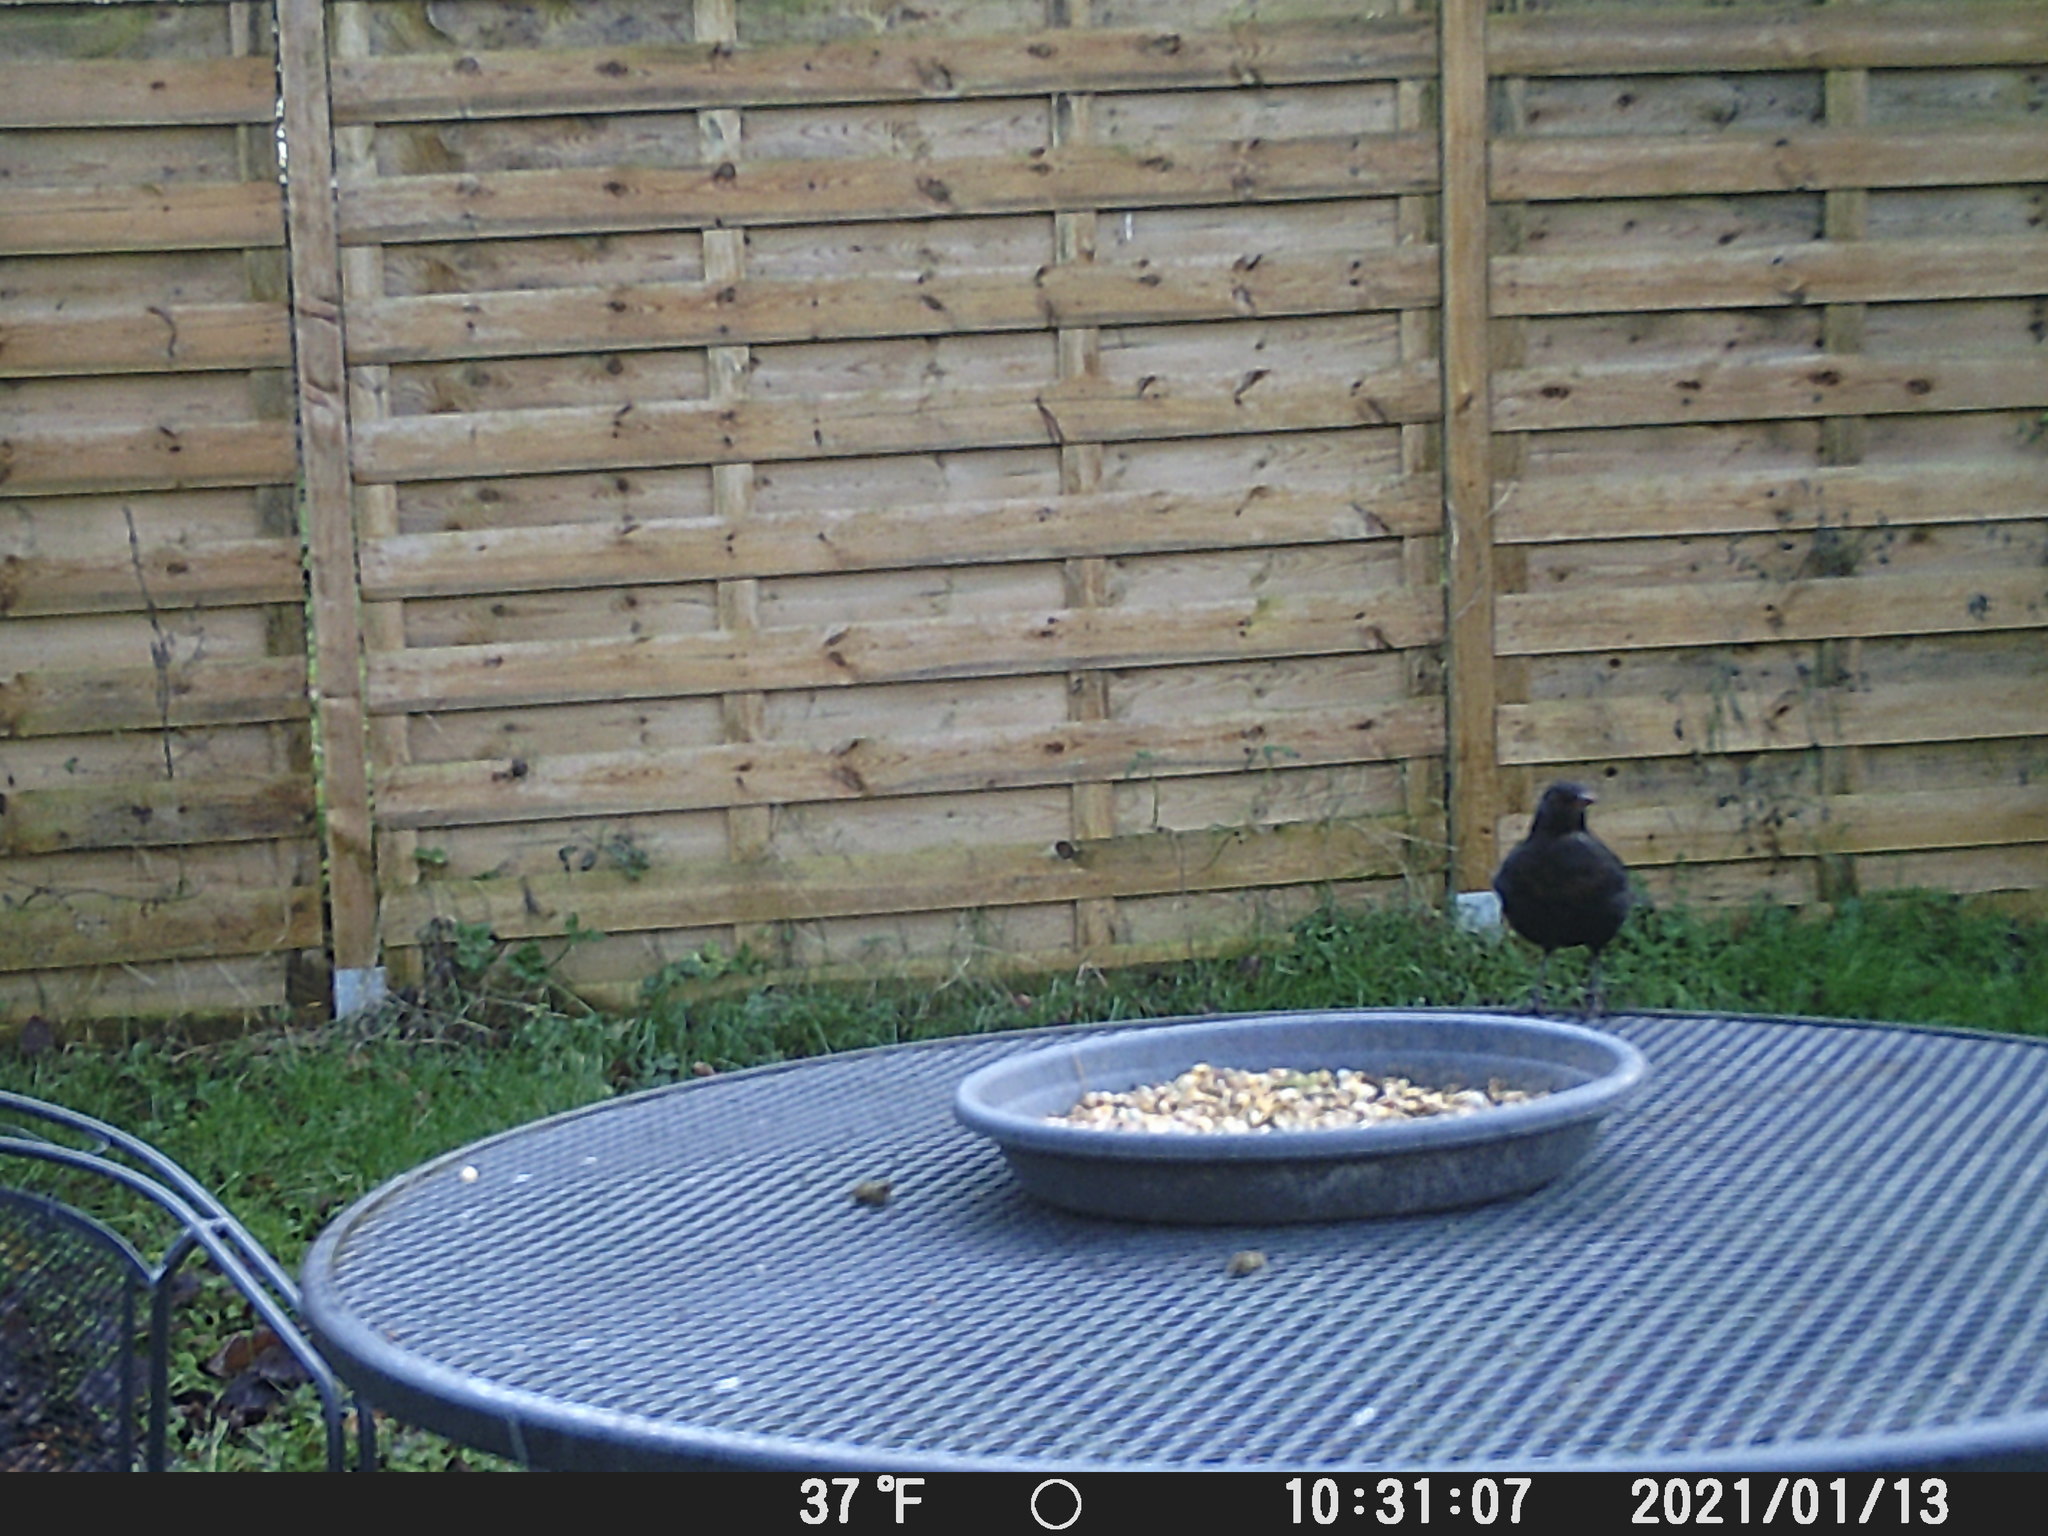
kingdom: Animalia
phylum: Chordata
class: Aves
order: Passeriformes
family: Turdidae
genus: Turdus
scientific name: Turdus merula
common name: Common blackbird
